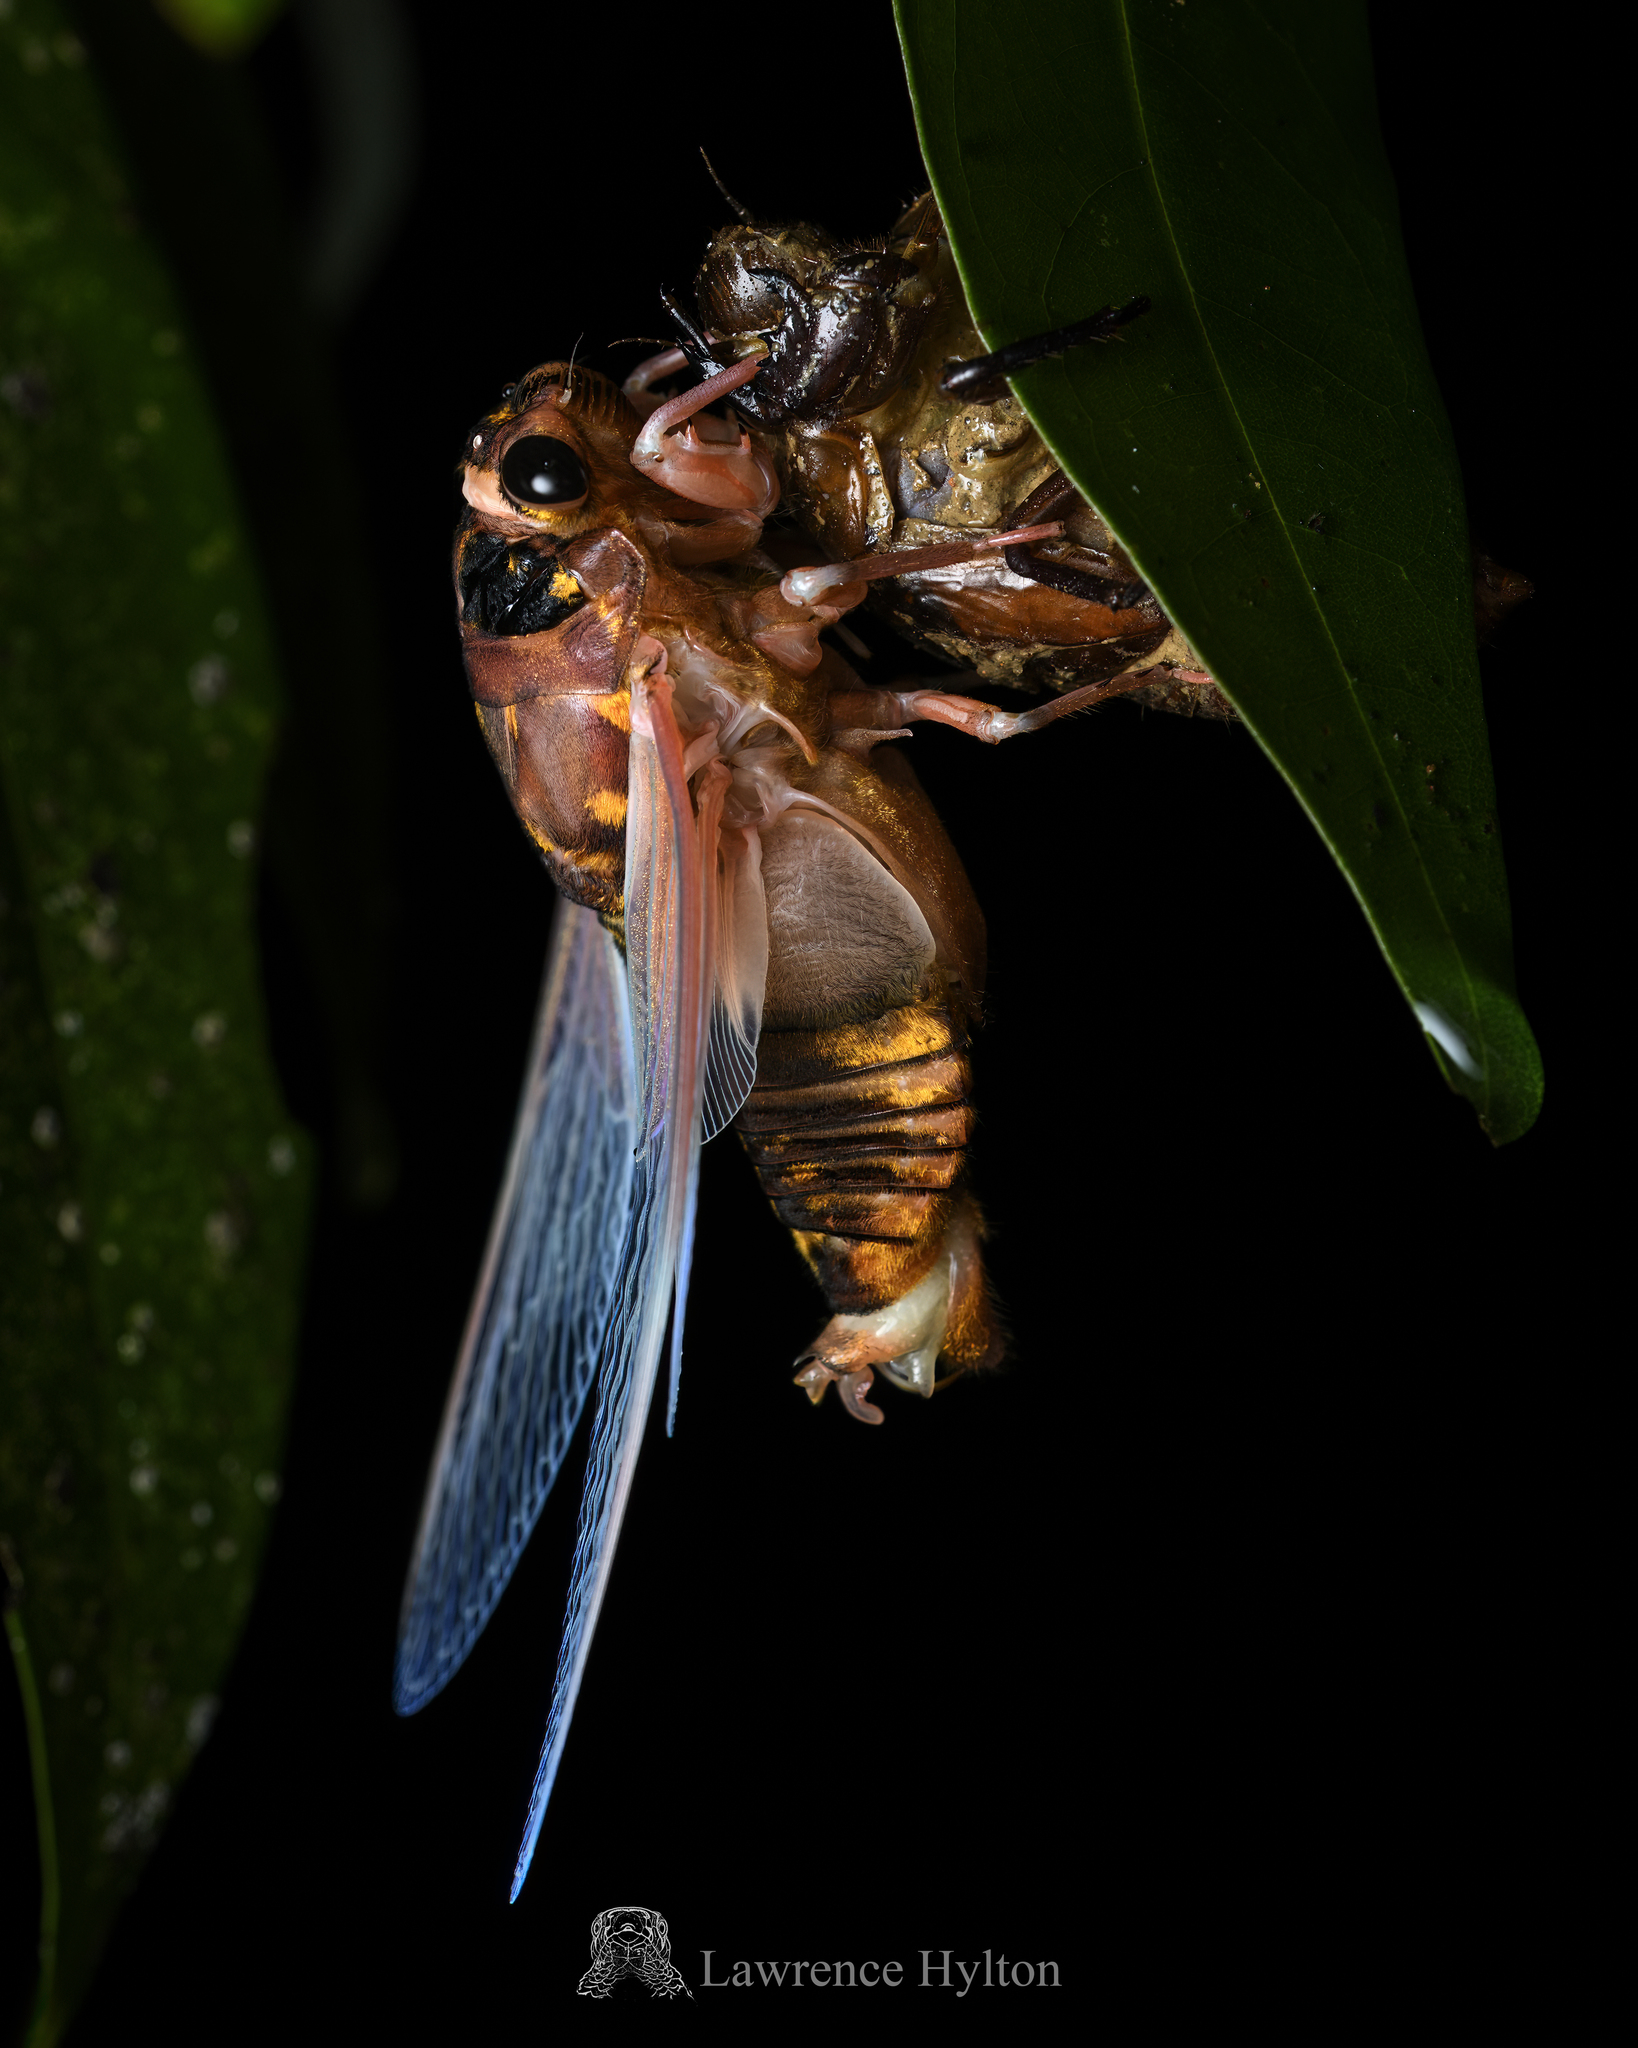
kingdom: Animalia
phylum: Arthropoda
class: Insecta
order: Hemiptera
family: Cicadidae
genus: Cryptotympana
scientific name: Cryptotympana mandarina
